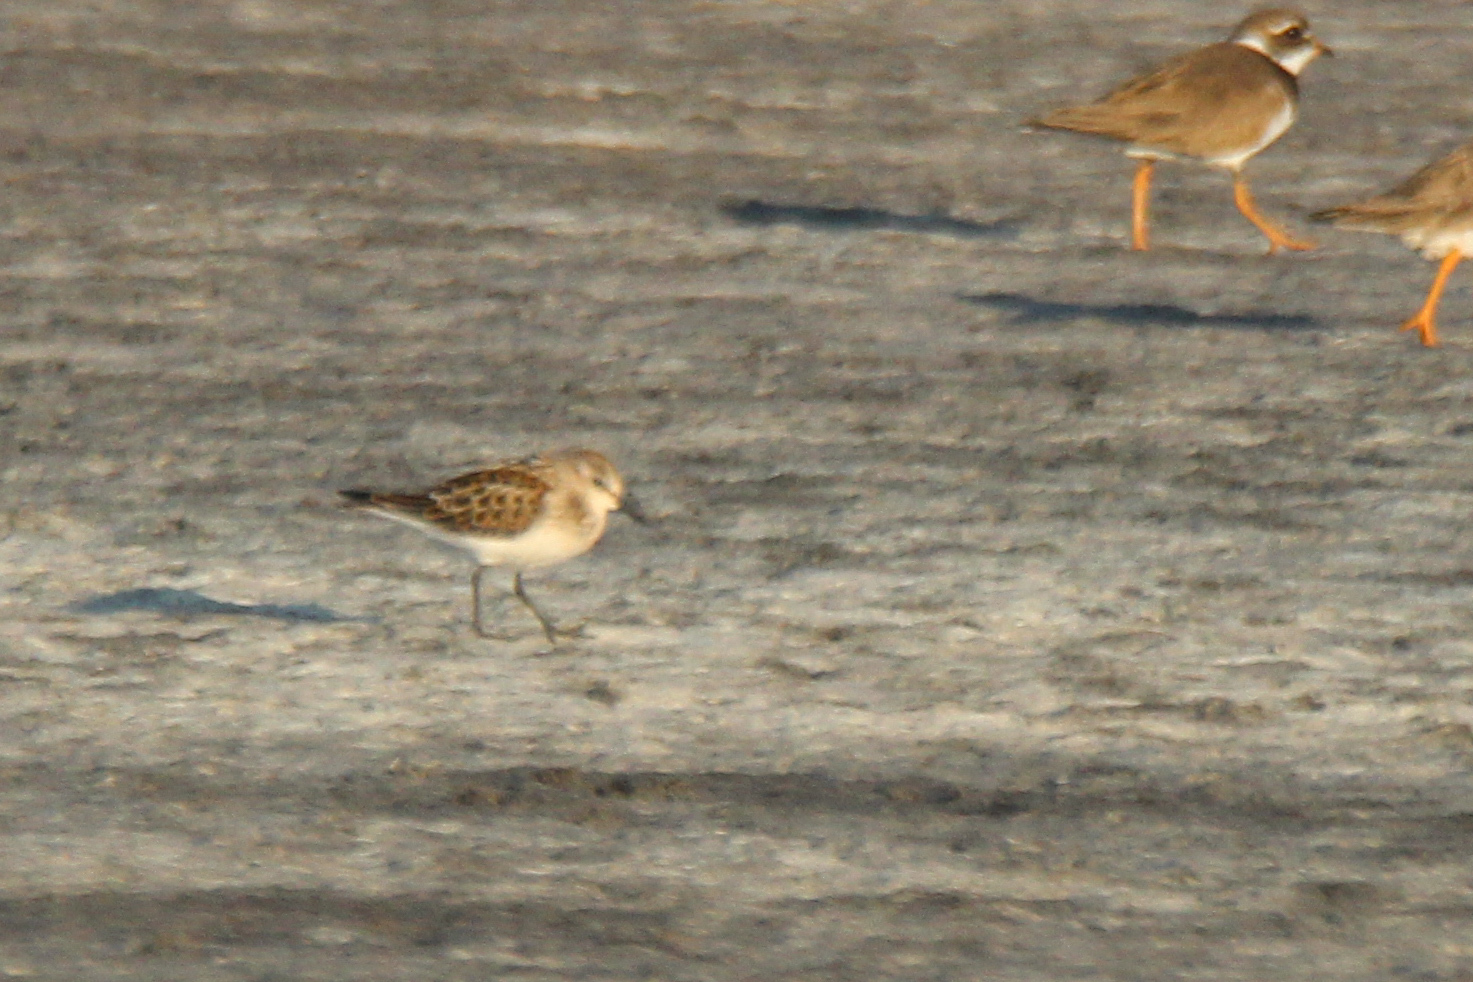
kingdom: Animalia
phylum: Chordata
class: Aves
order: Charadriiformes
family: Scolopacidae
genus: Calidris
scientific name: Calidris minuta
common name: Little stint
